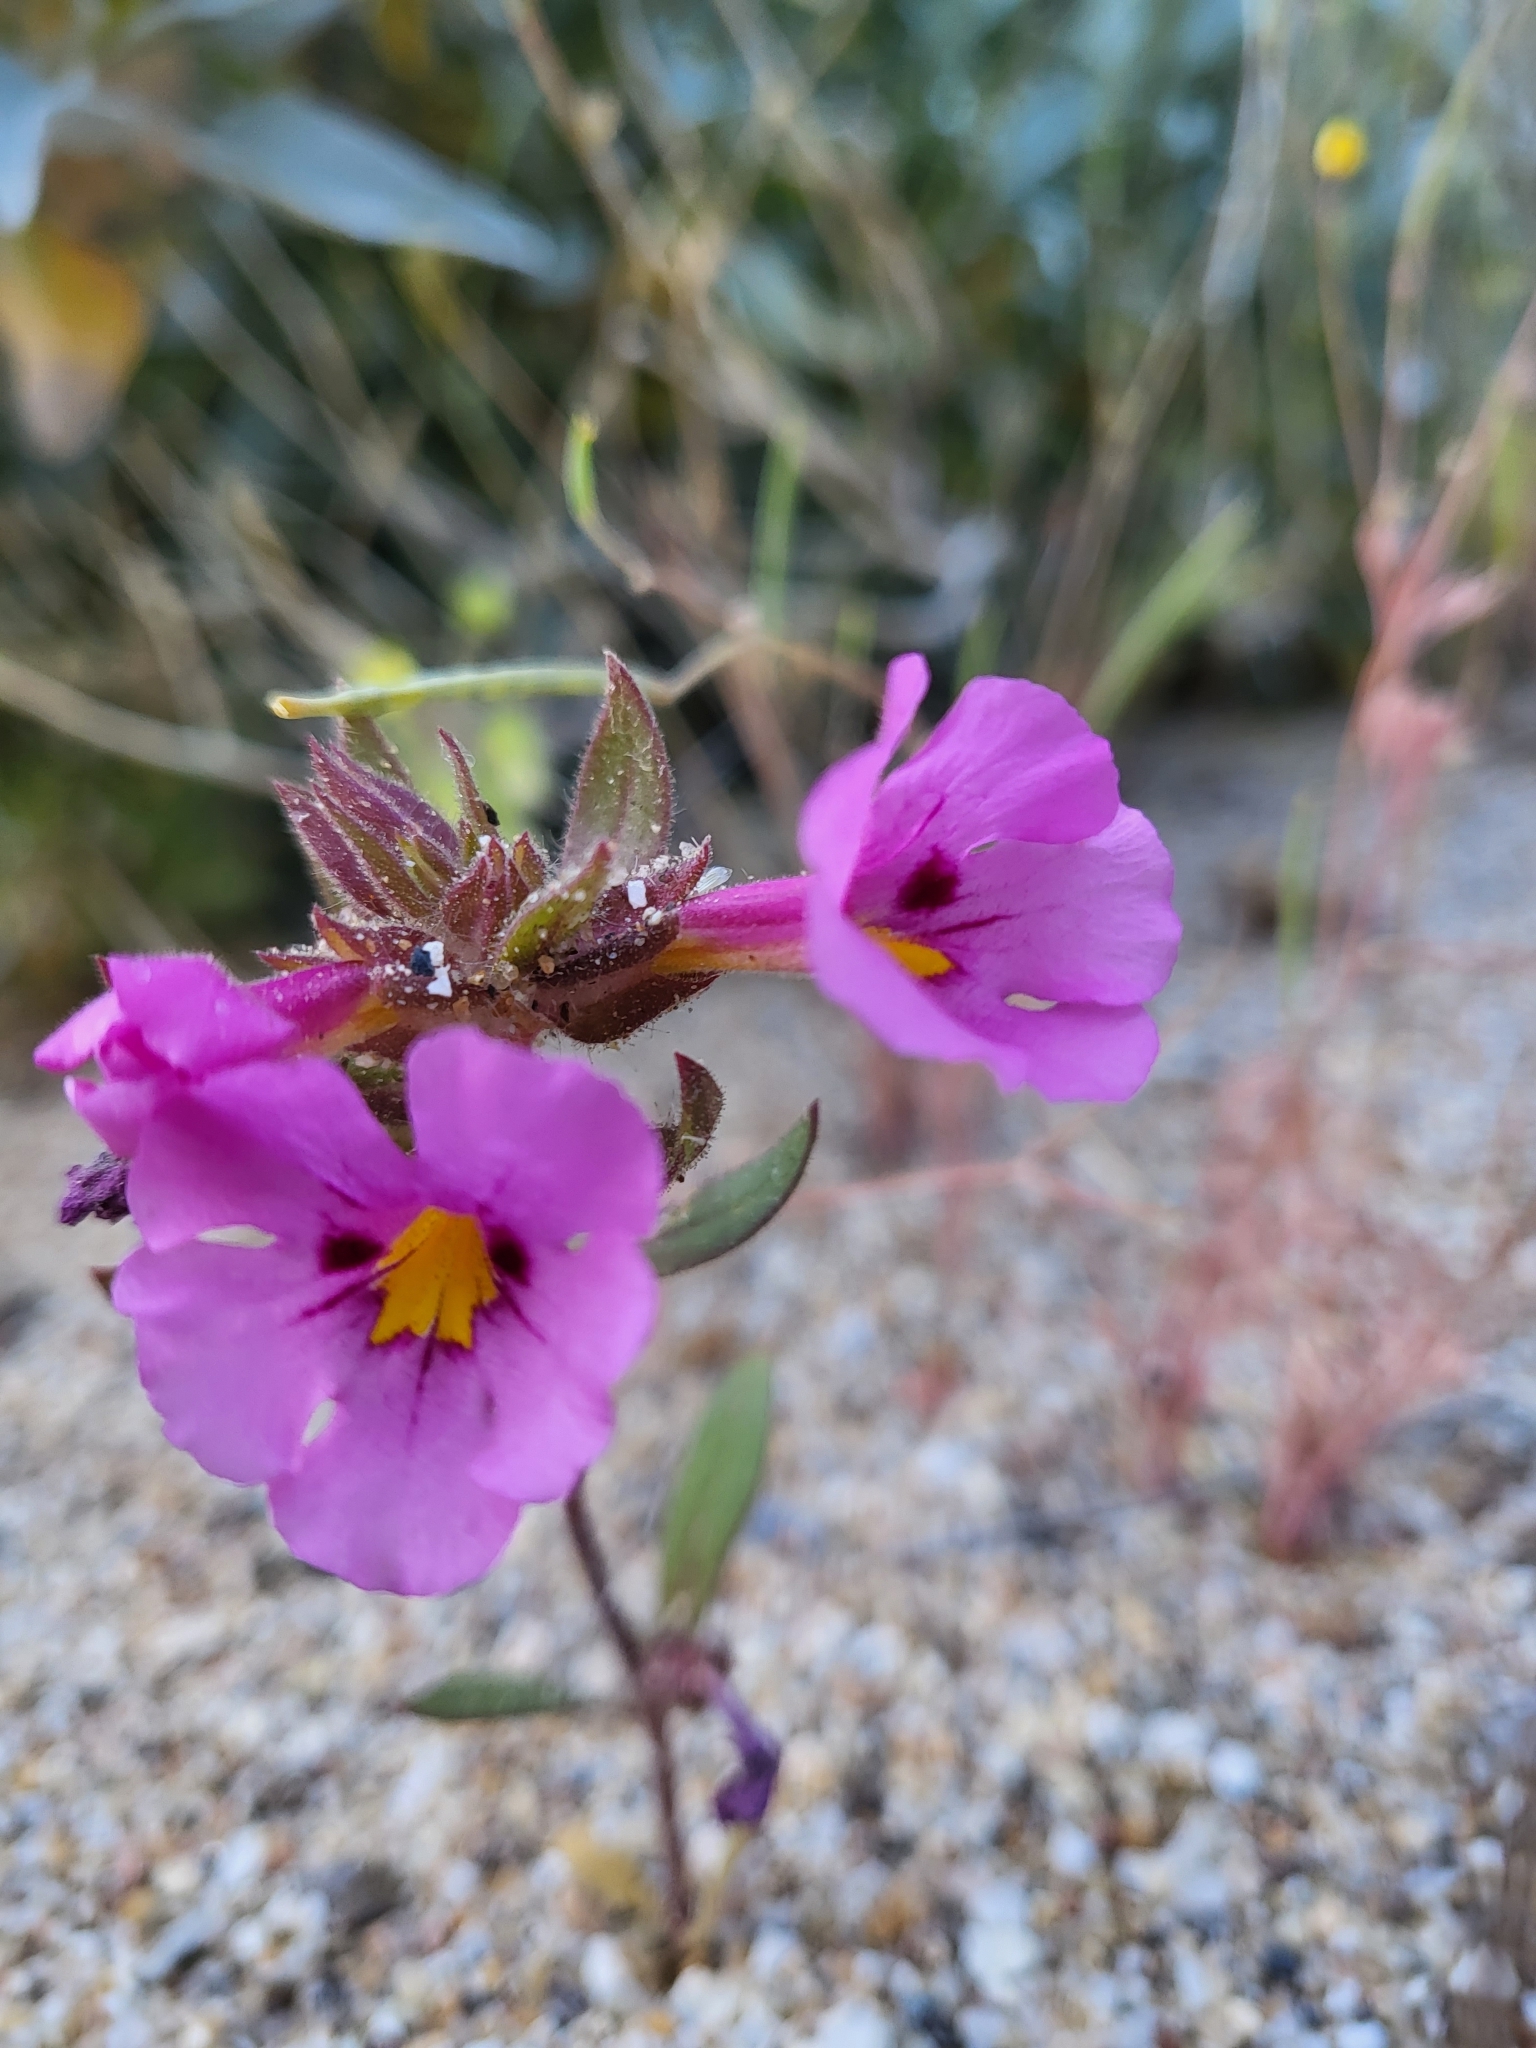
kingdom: Plantae
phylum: Tracheophyta
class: Magnoliopsida
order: Lamiales
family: Phrymaceae
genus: Diplacus
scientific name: Diplacus bigelovii
